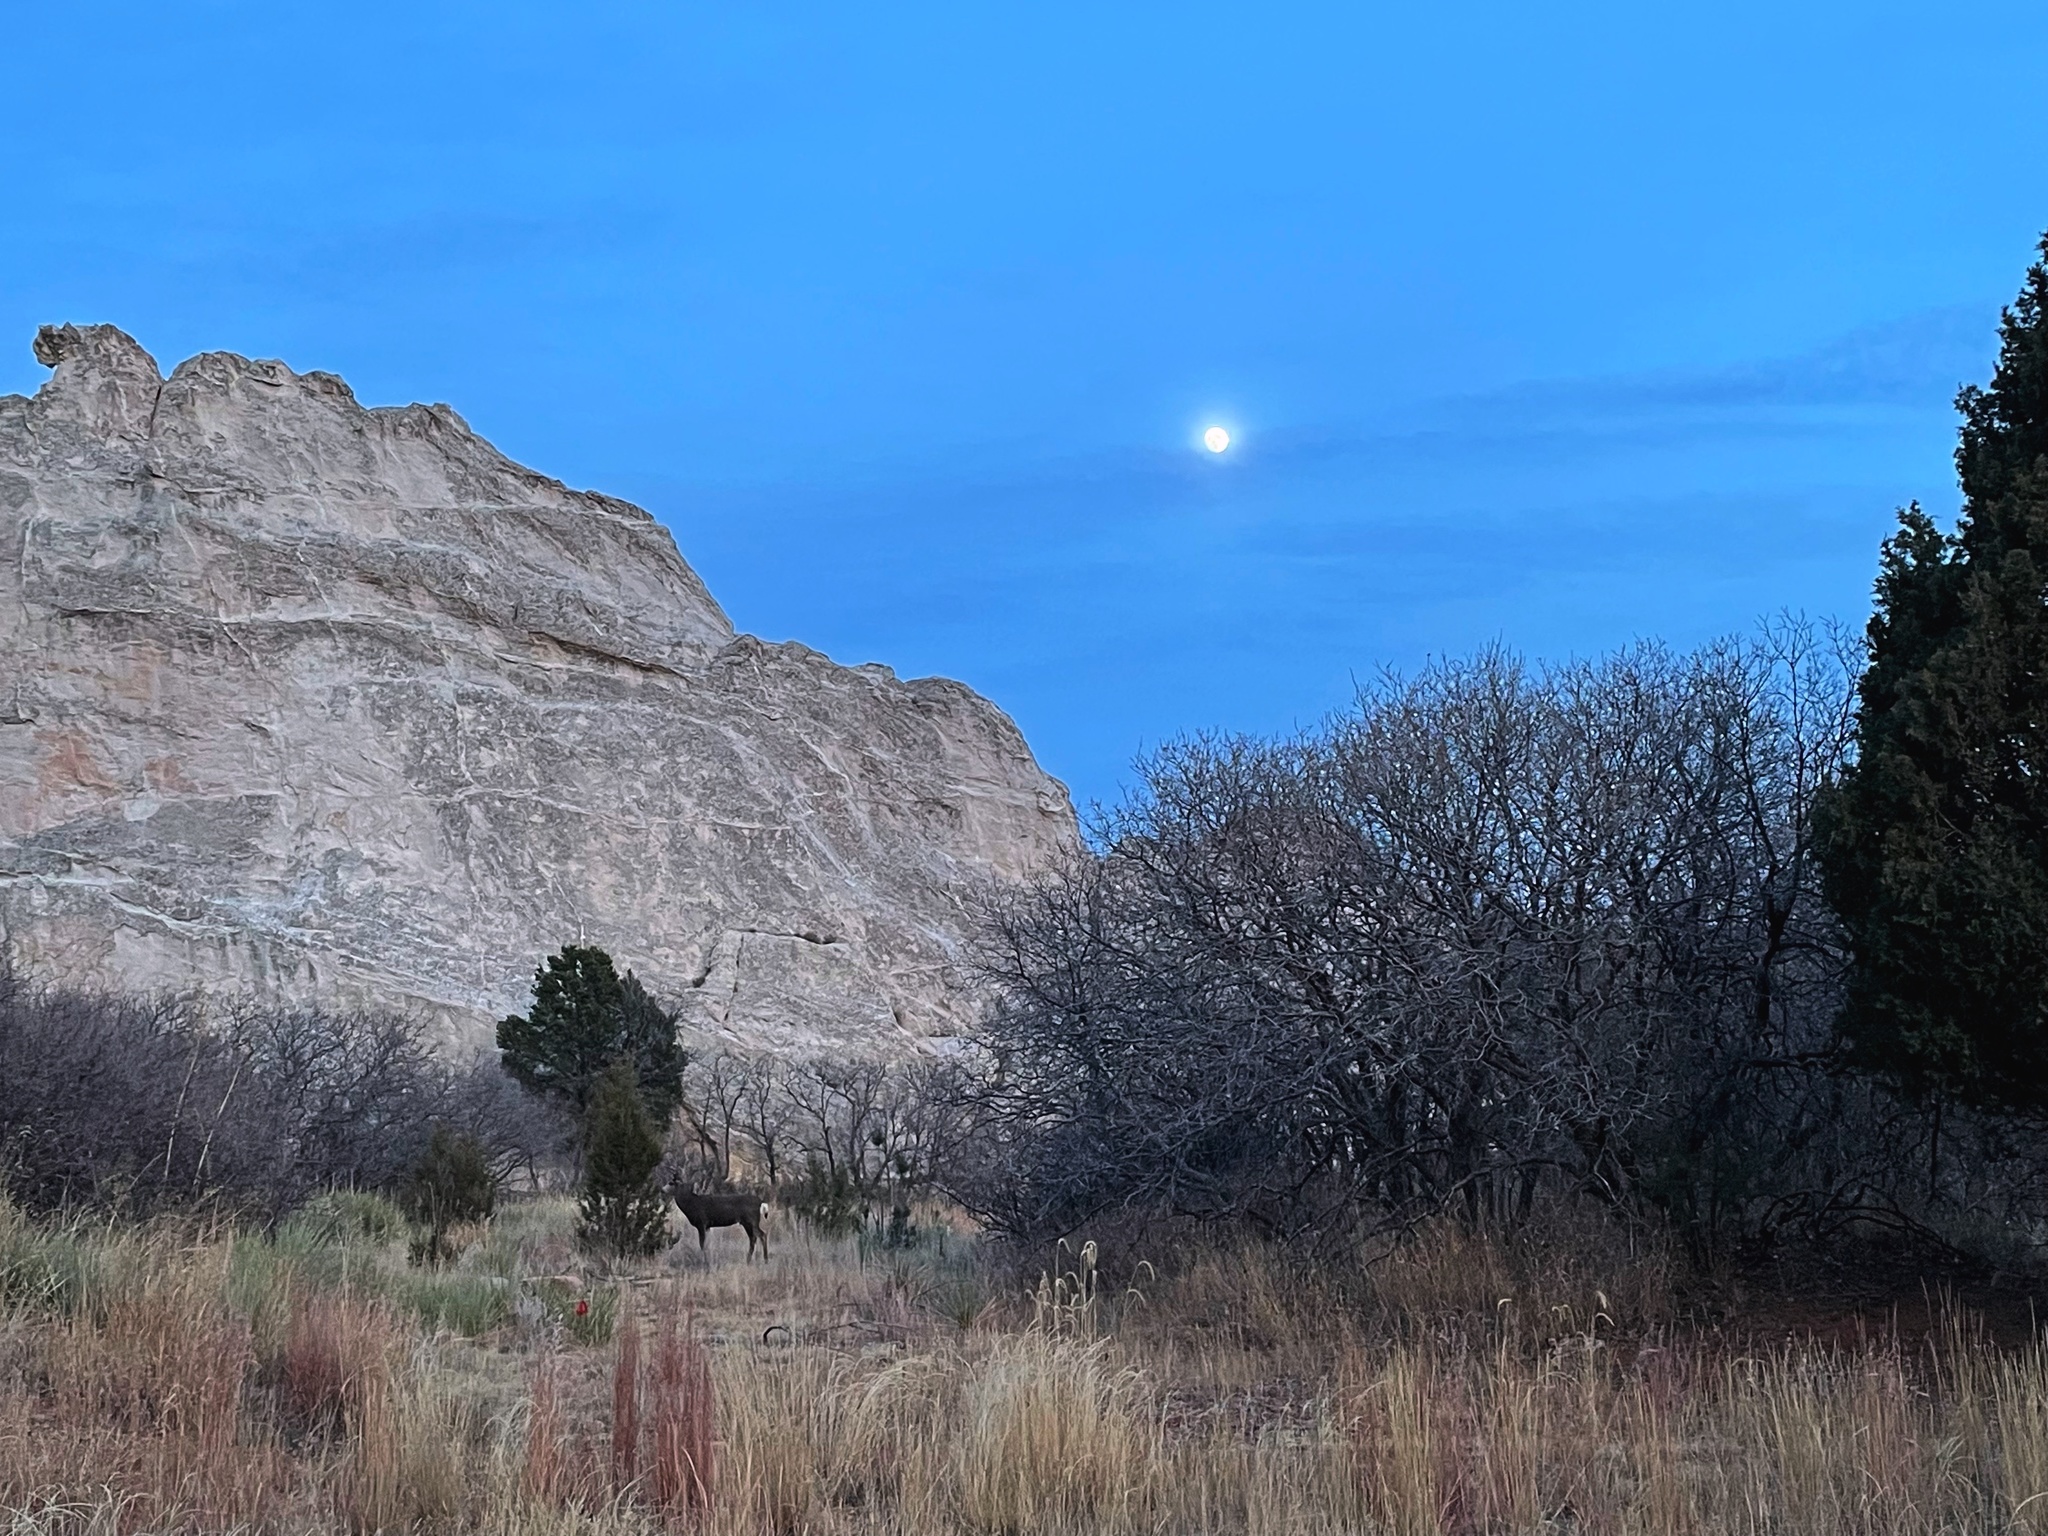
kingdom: Animalia
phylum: Chordata
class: Mammalia
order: Artiodactyla
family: Cervidae
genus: Odocoileus
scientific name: Odocoileus hemionus
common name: Mule deer
